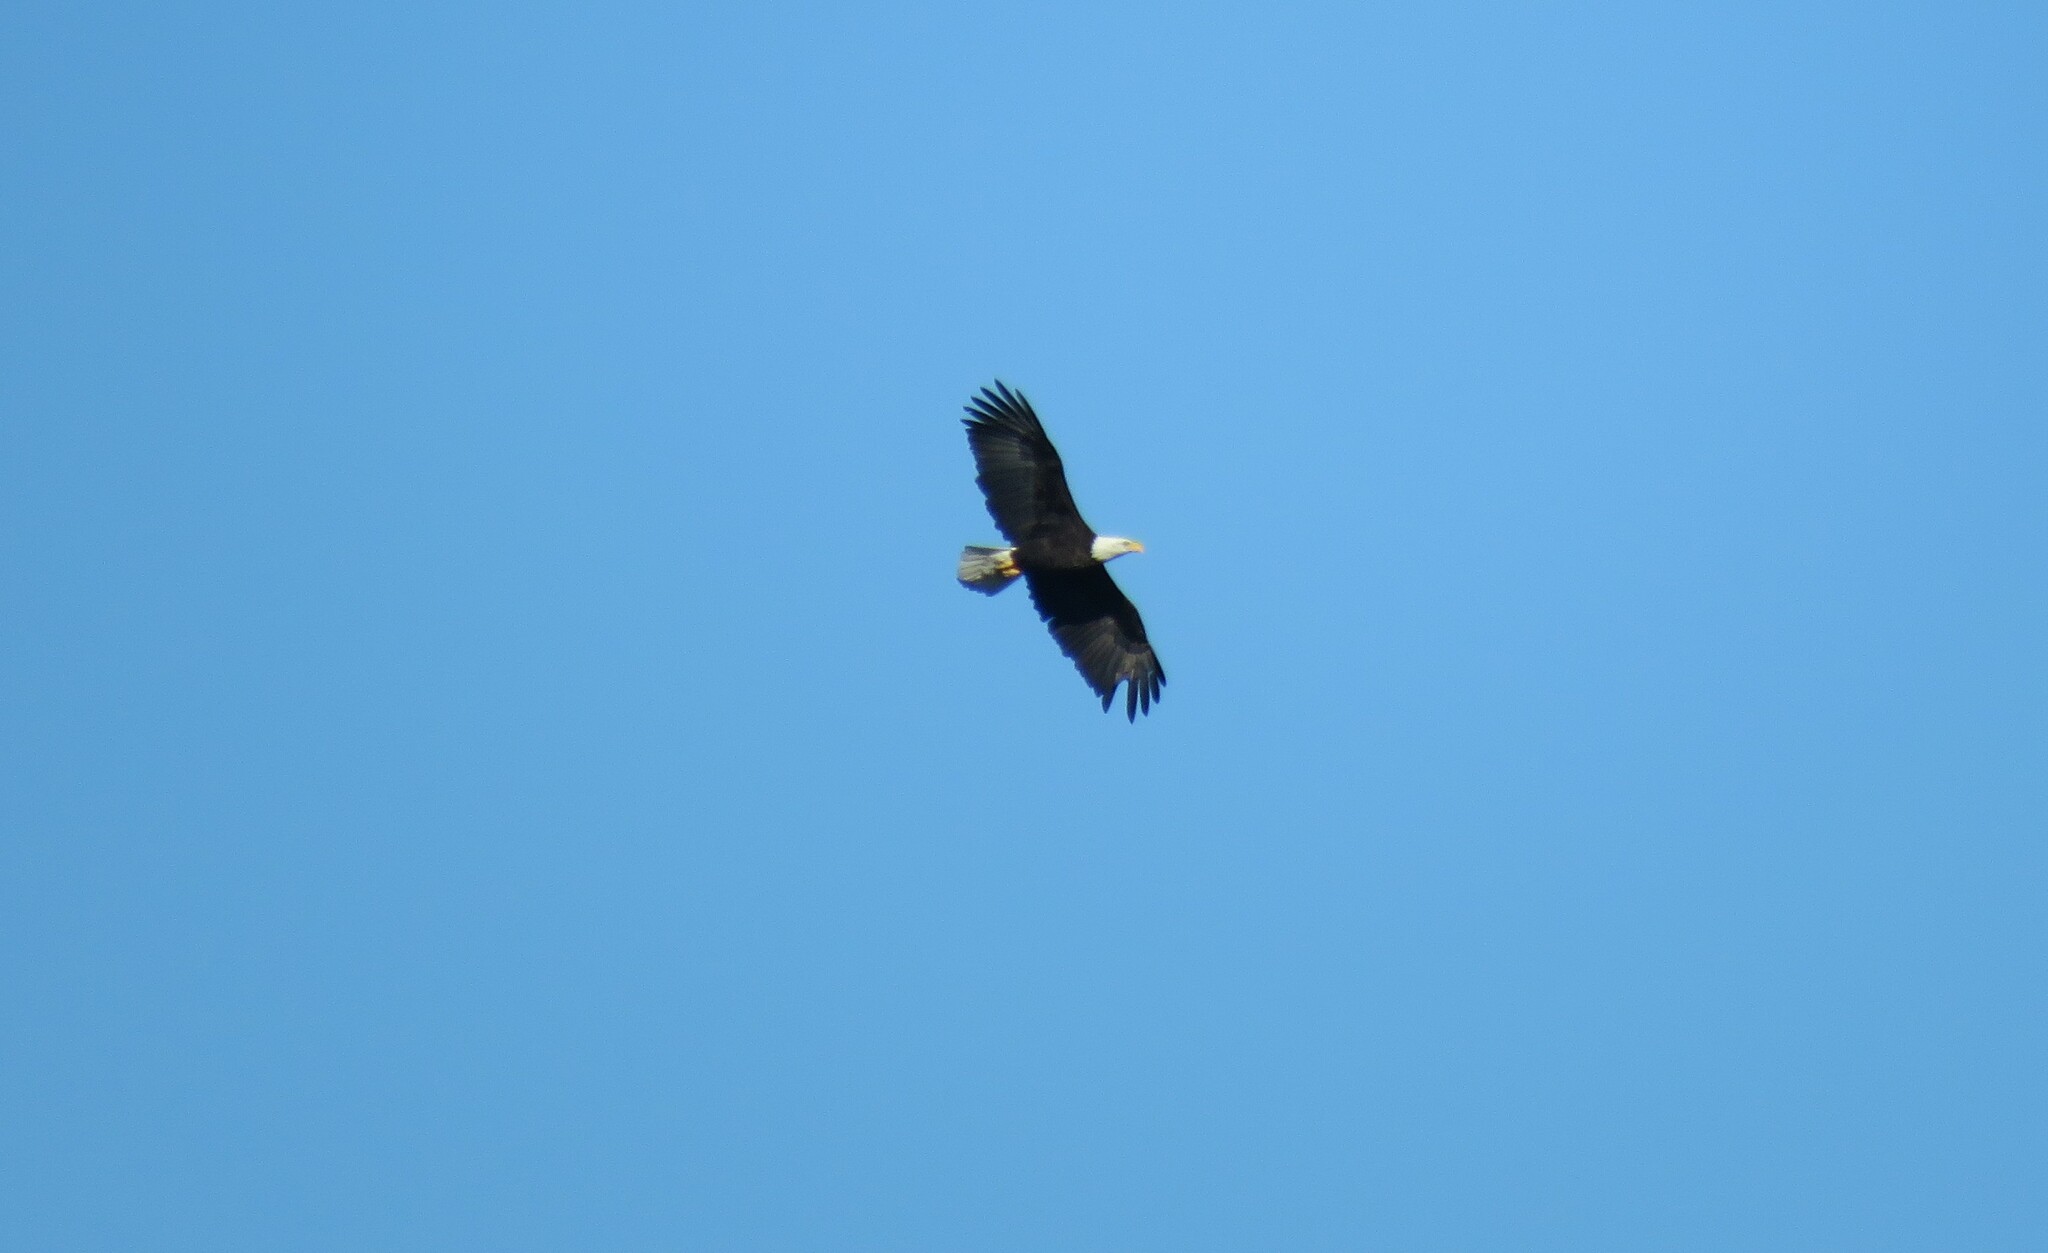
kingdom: Animalia
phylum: Chordata
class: Aves
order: Accipitriformes
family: Accipitridae
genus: Haliaeetus
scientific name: Haliaeetus leucocephalus
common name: Bald eagle
